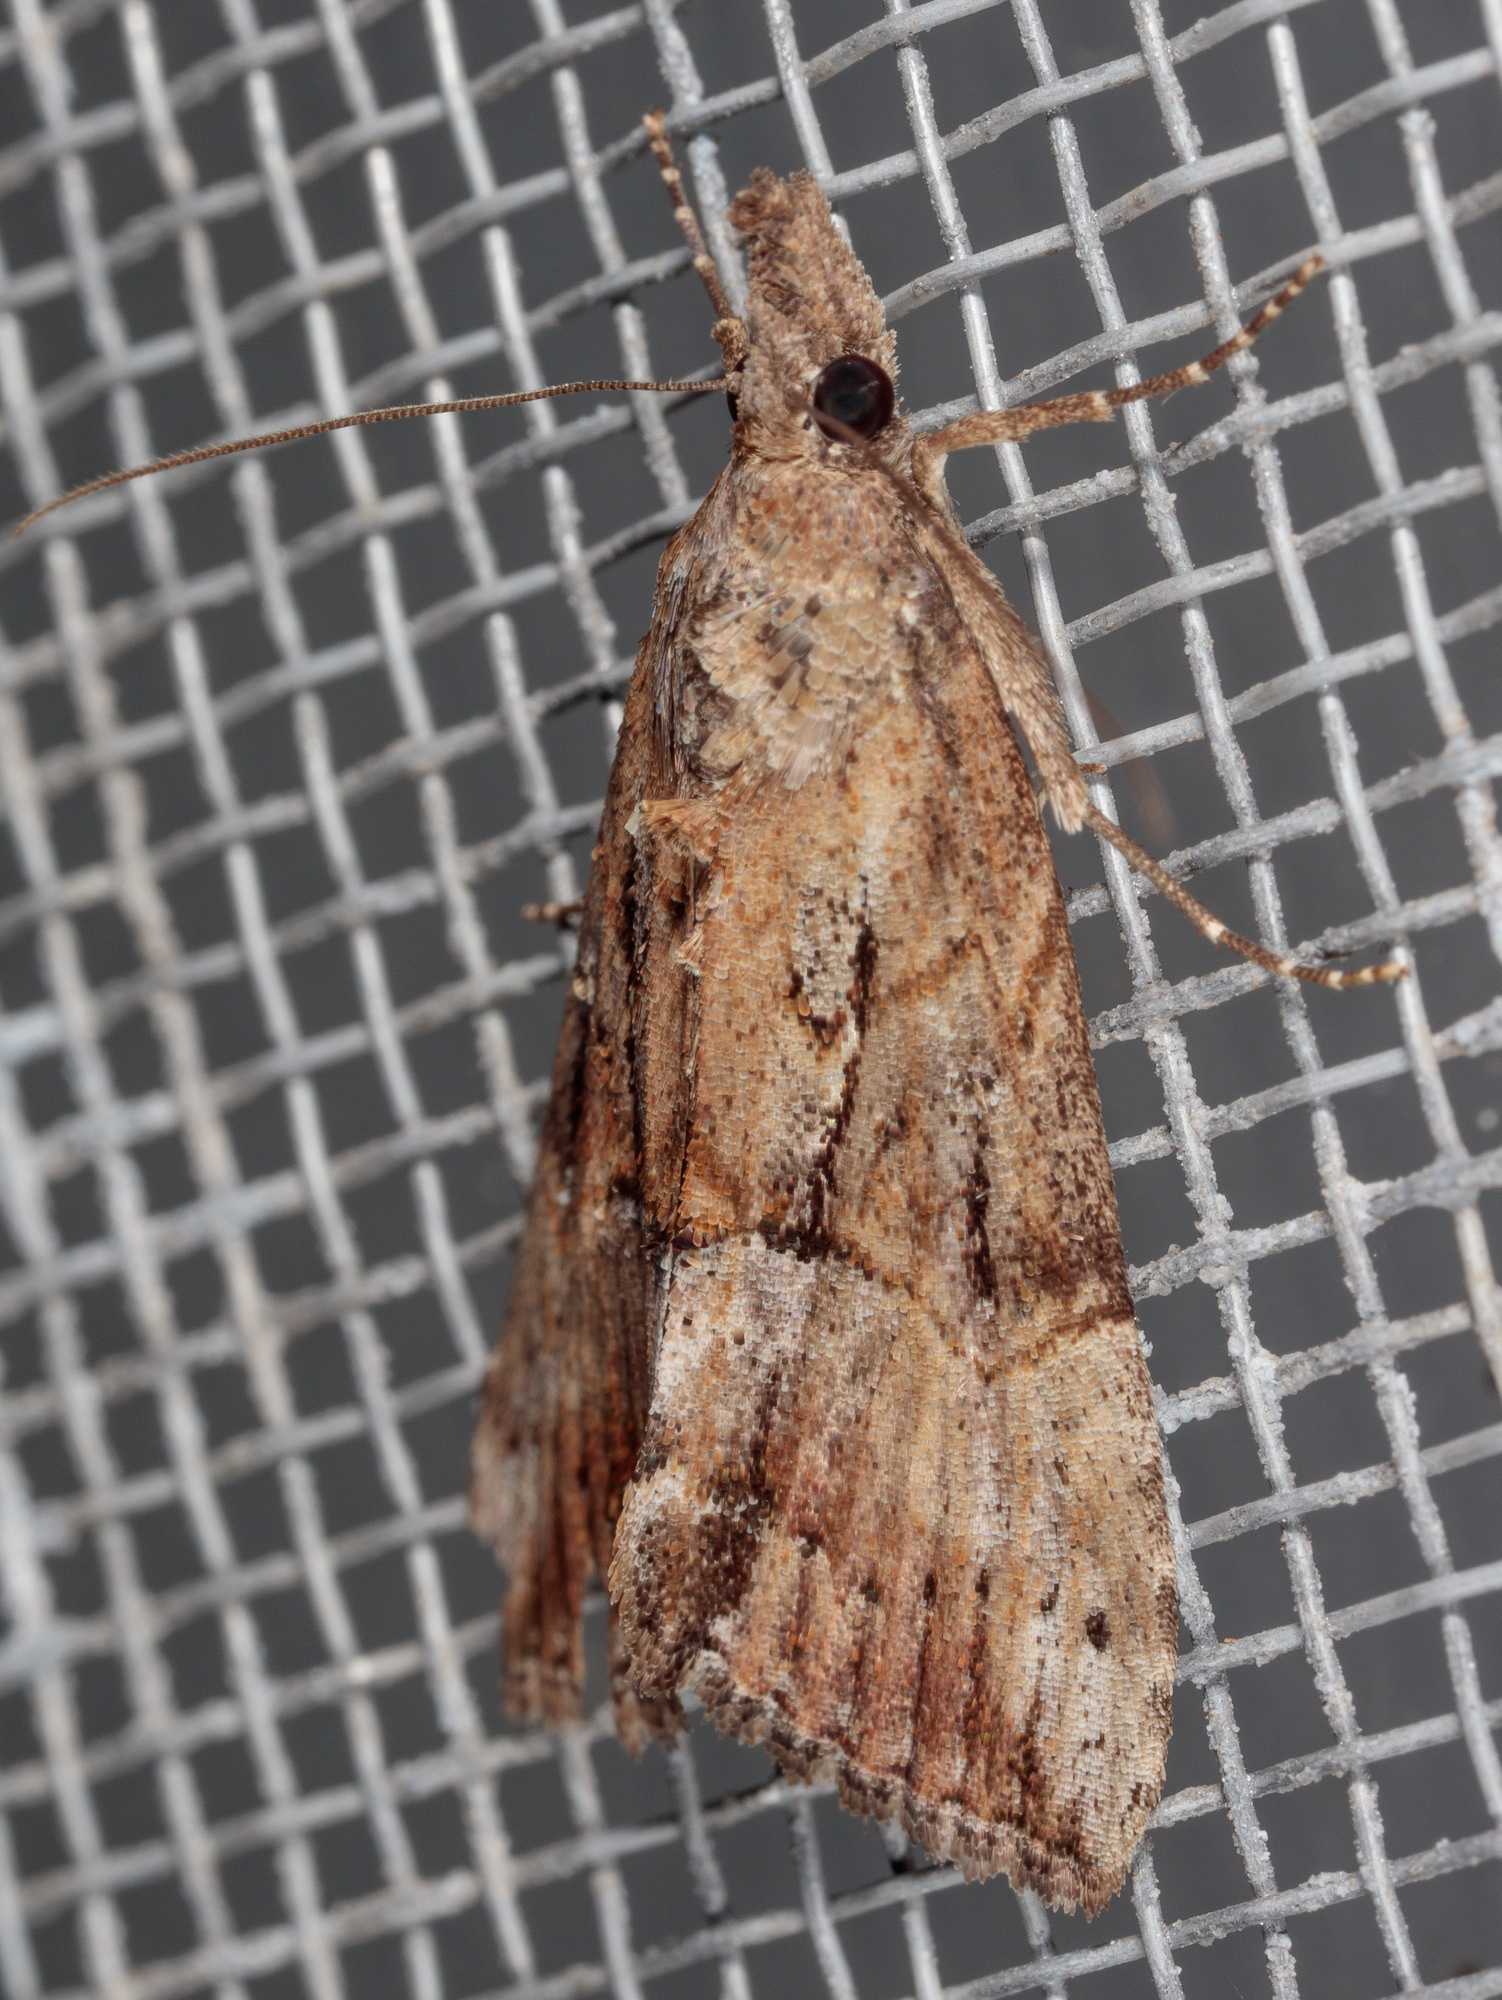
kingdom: Animalia
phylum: Arthropoda
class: Insecta
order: Lepidoptera
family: Erebidae
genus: Hypena
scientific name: Hypena scabra
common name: Green cloverworm
